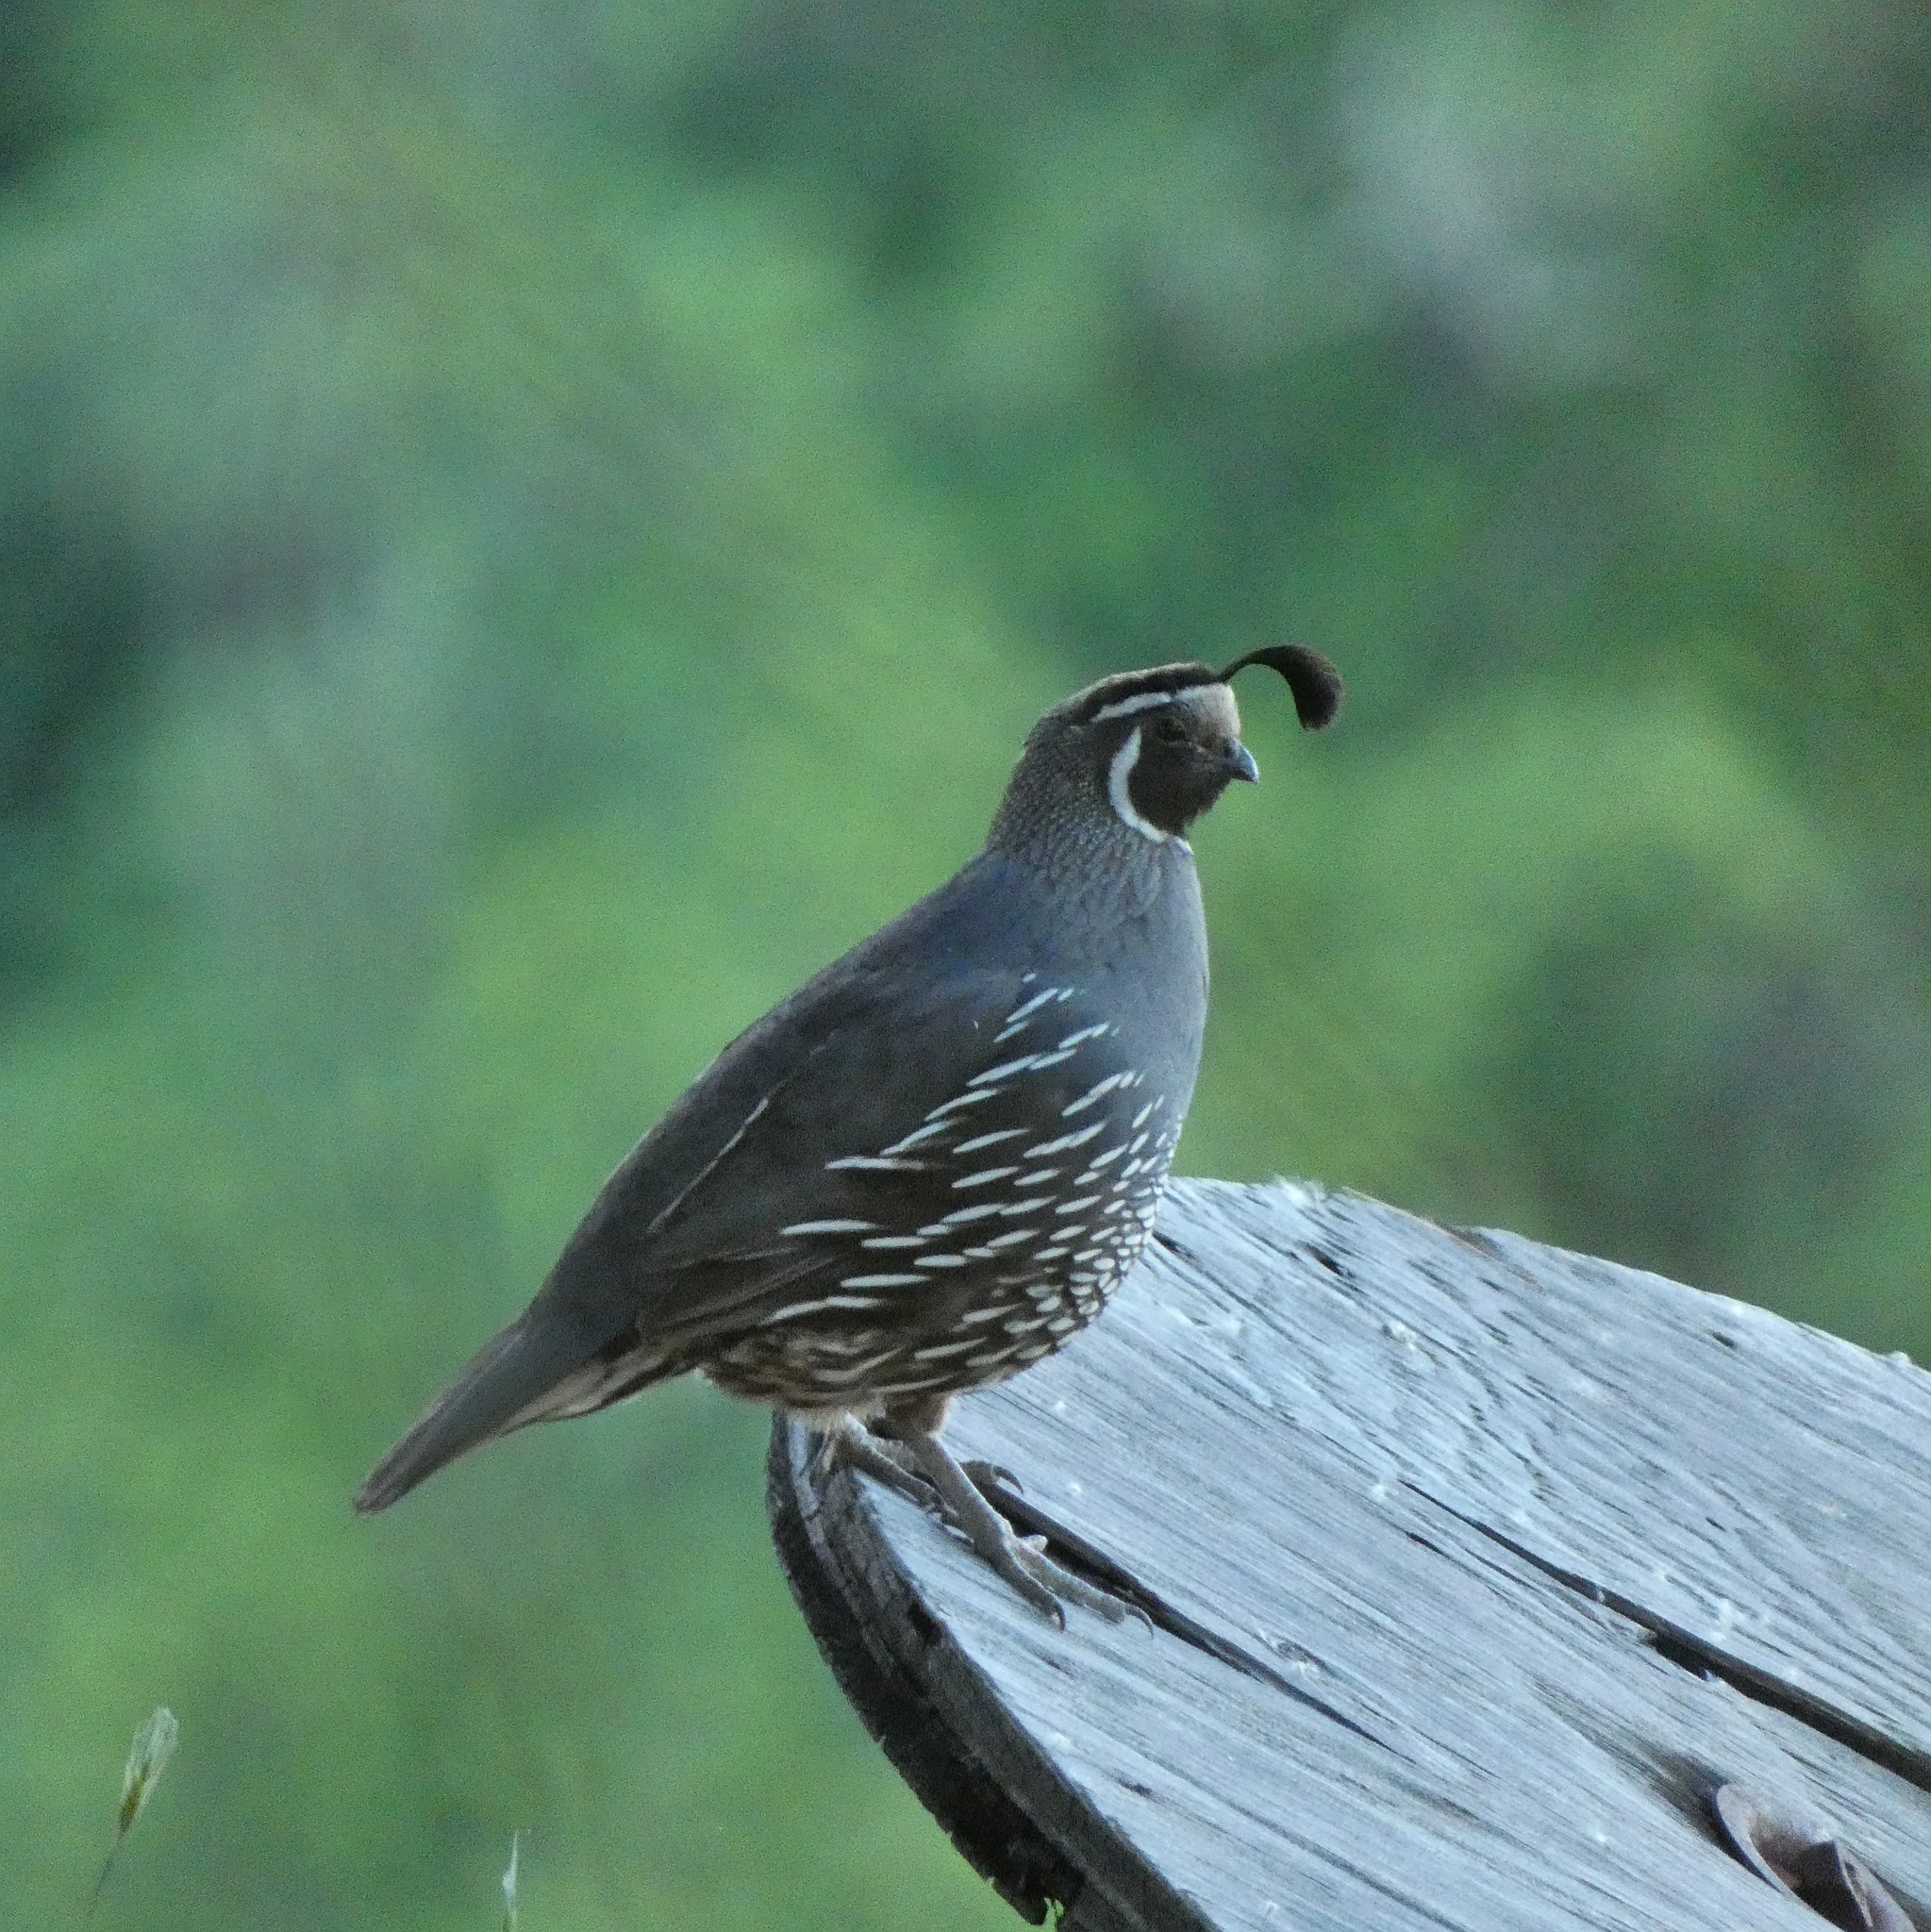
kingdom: Animalia
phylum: Chordata
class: Aves
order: Galliformes
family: Odontophoridae
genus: Callipepla
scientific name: Callipepla californica
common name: California quail
